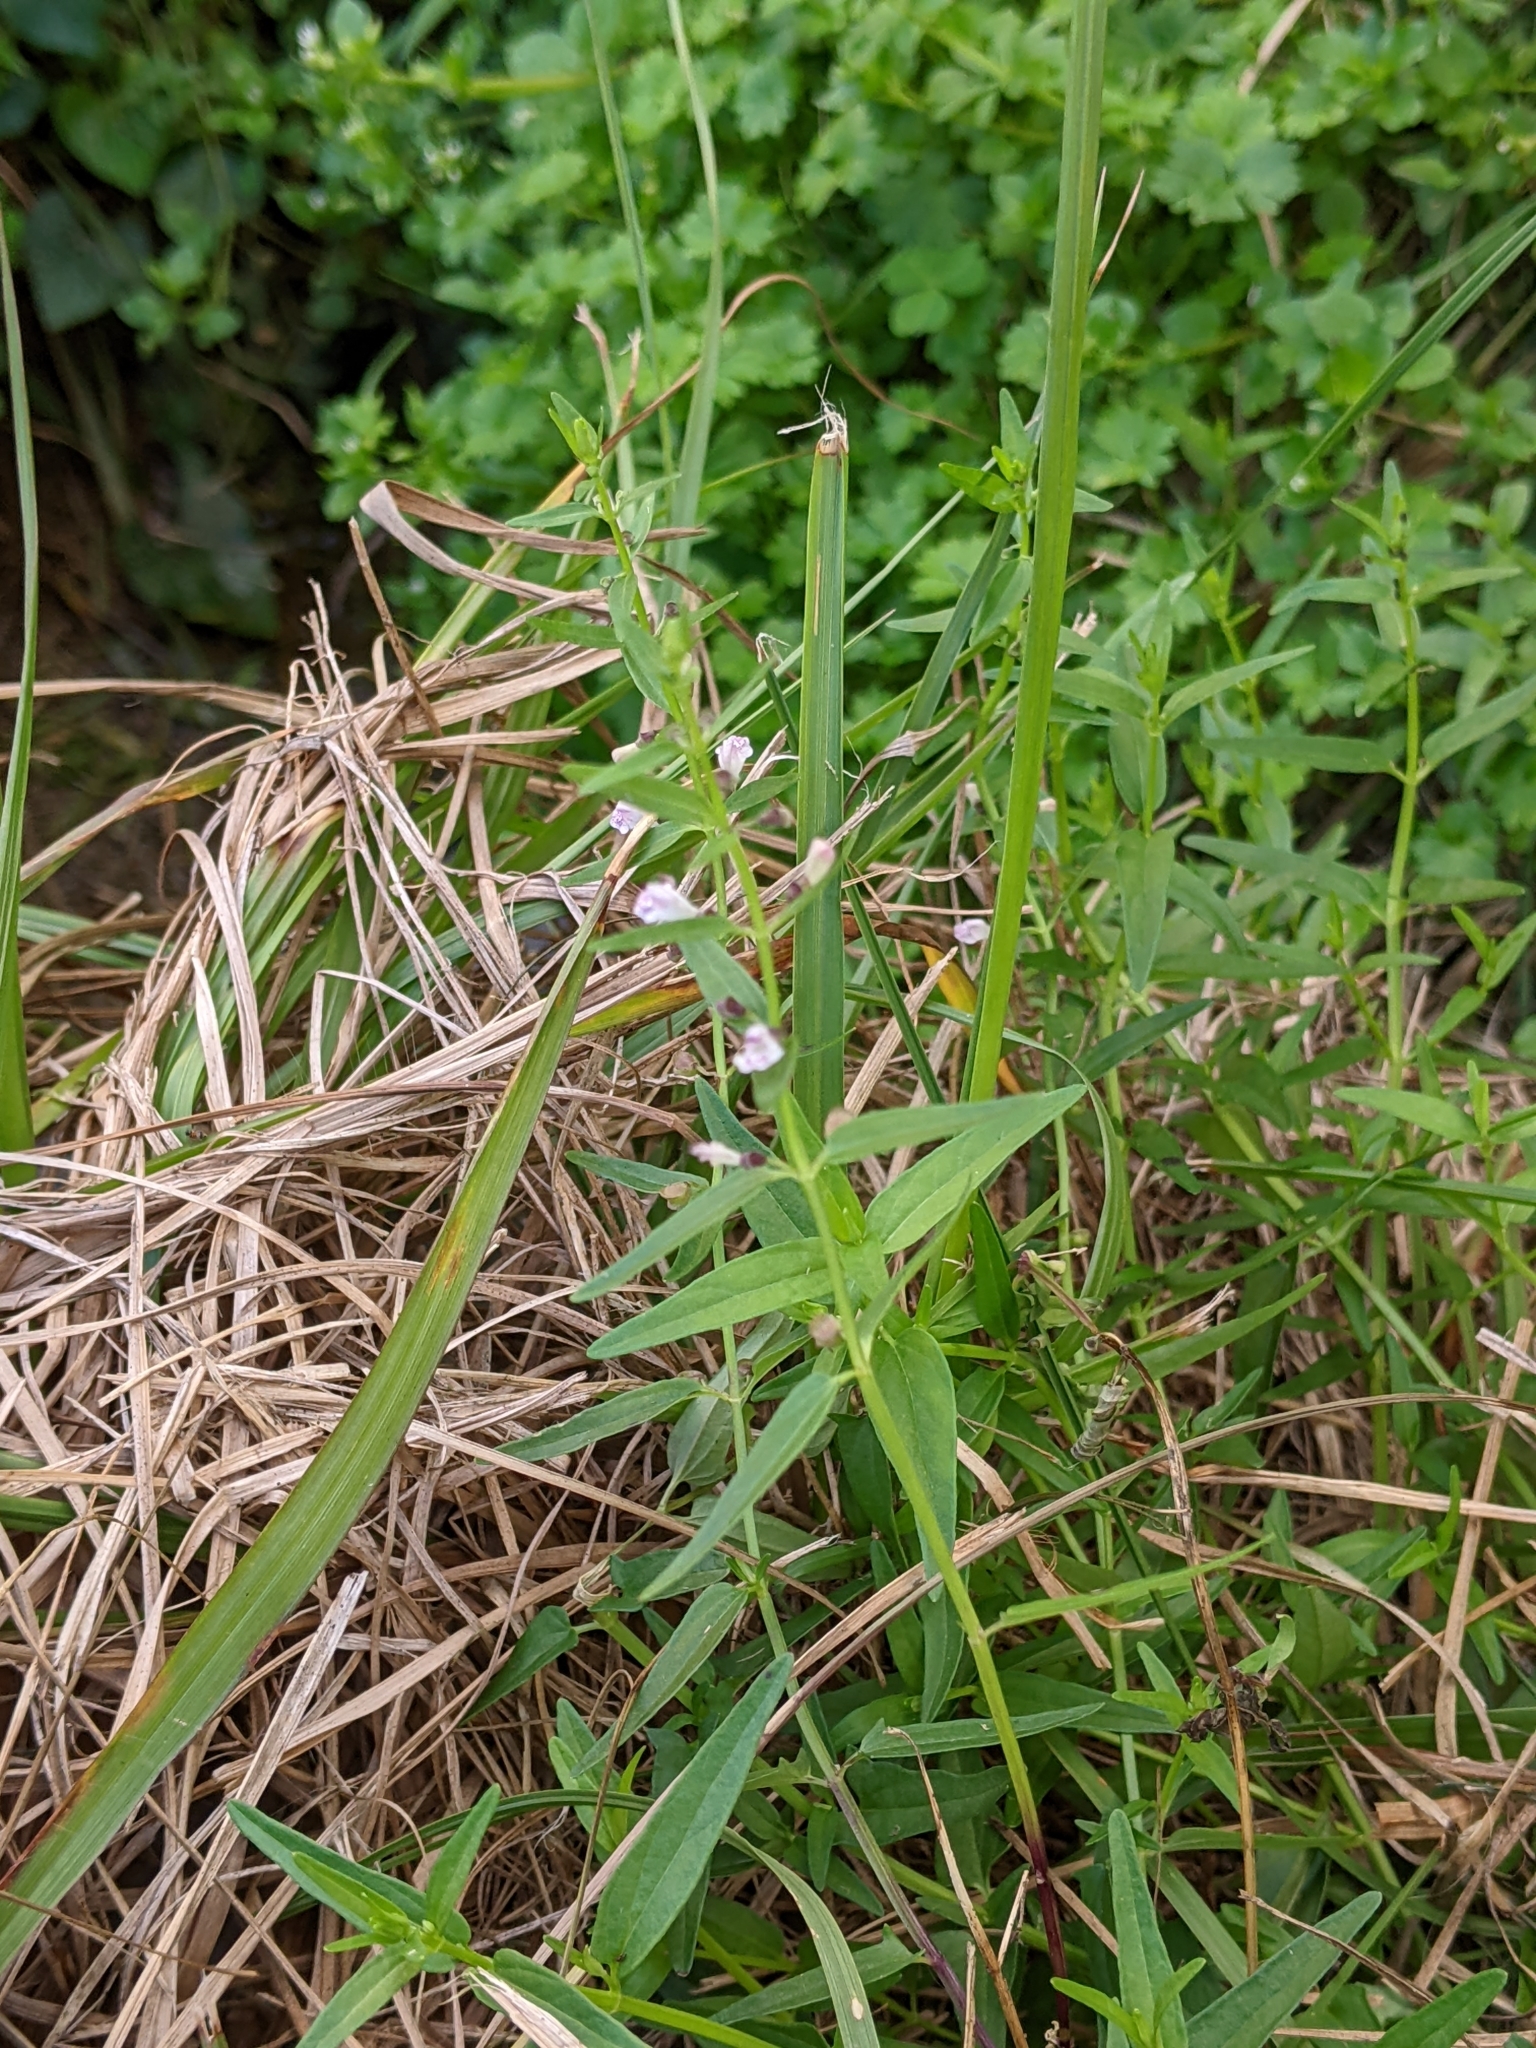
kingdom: Plantae
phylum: Tracheophyta
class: Magnoliopsida
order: Lamiales
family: Lamiaceae
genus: Scutellaria
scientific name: Scutellaria racemosa
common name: South american skullcap
